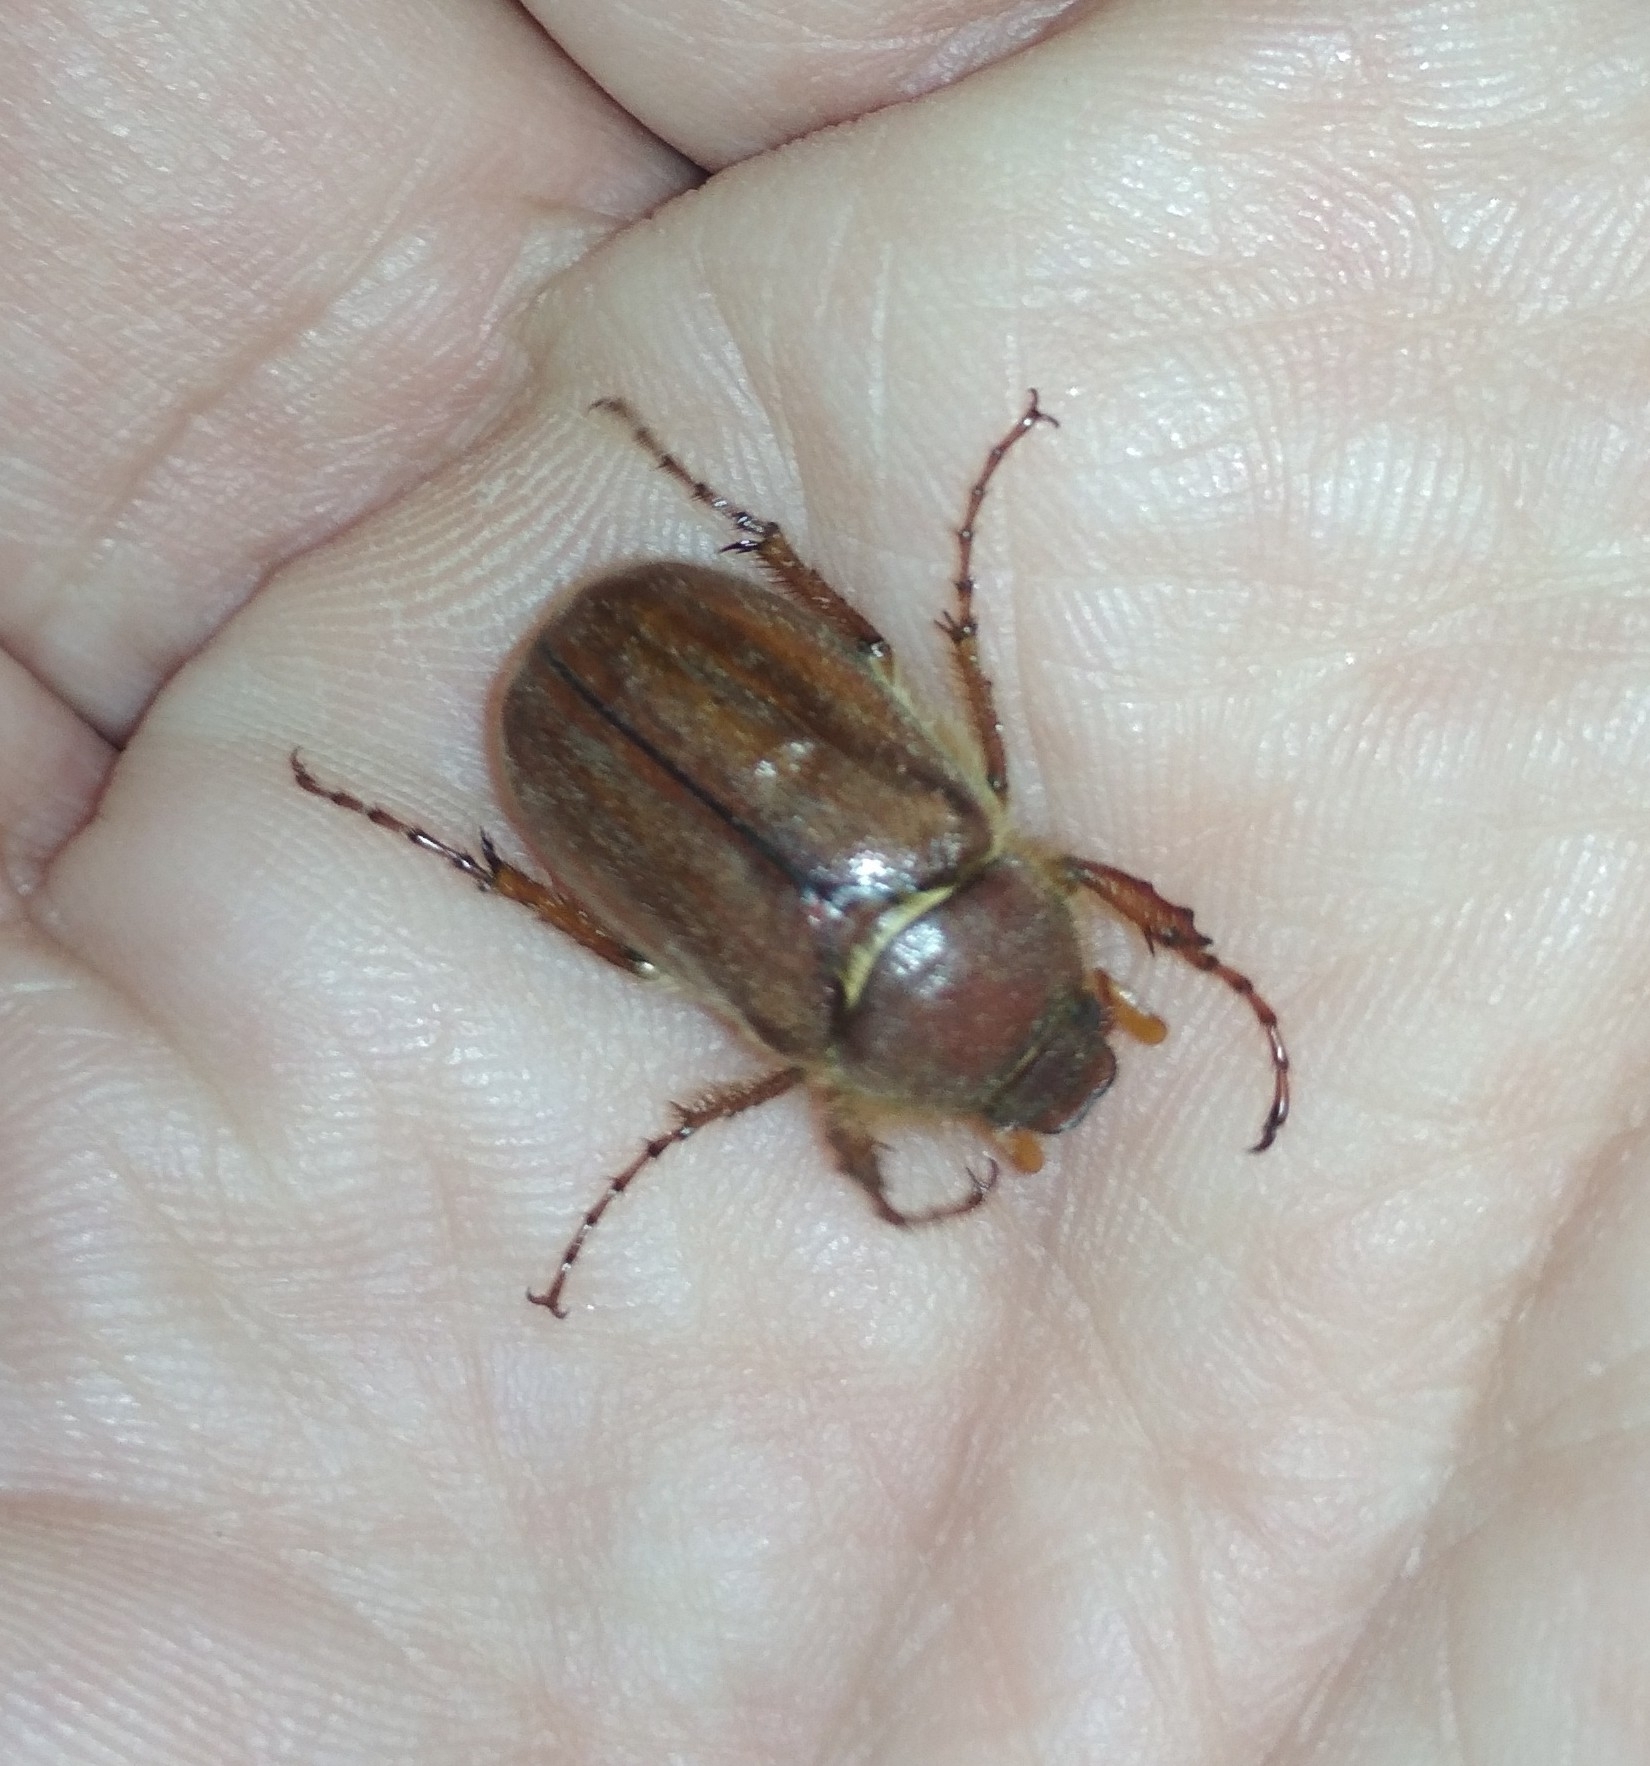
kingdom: Animalia
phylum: Arthropoda
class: Insecta
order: Coleoptera
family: Scarabaeidae
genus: Holochelus
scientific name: Holochelus fraxinicola
